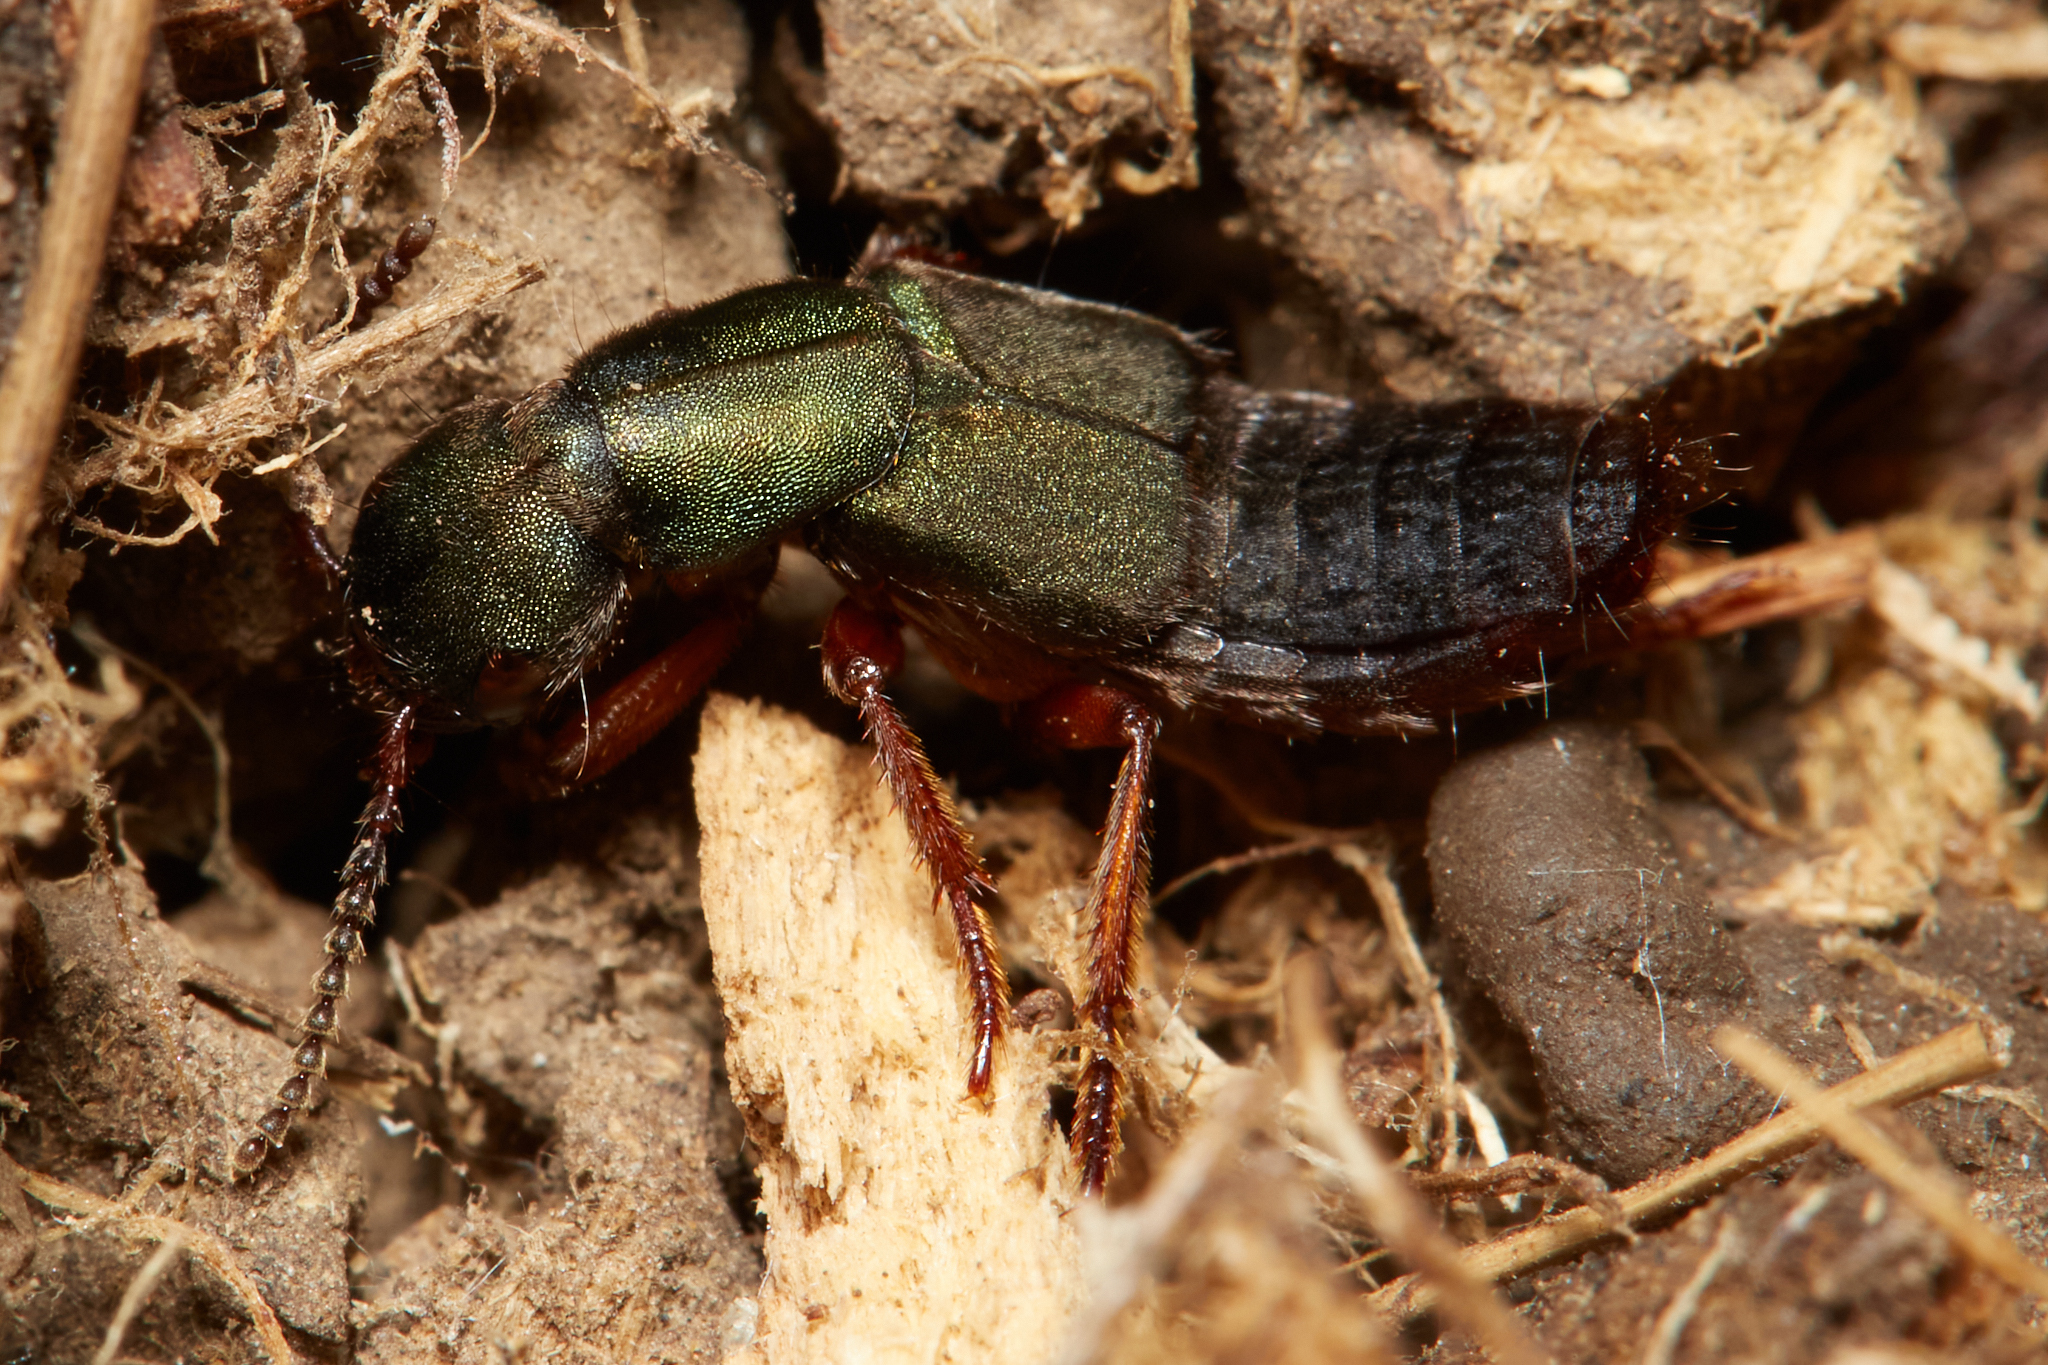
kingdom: Animalia
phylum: Arthropoda
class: Insecta
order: Coleoptera
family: Staphylinidae
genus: Dinothenarus
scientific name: Dinothenarus luteipes
